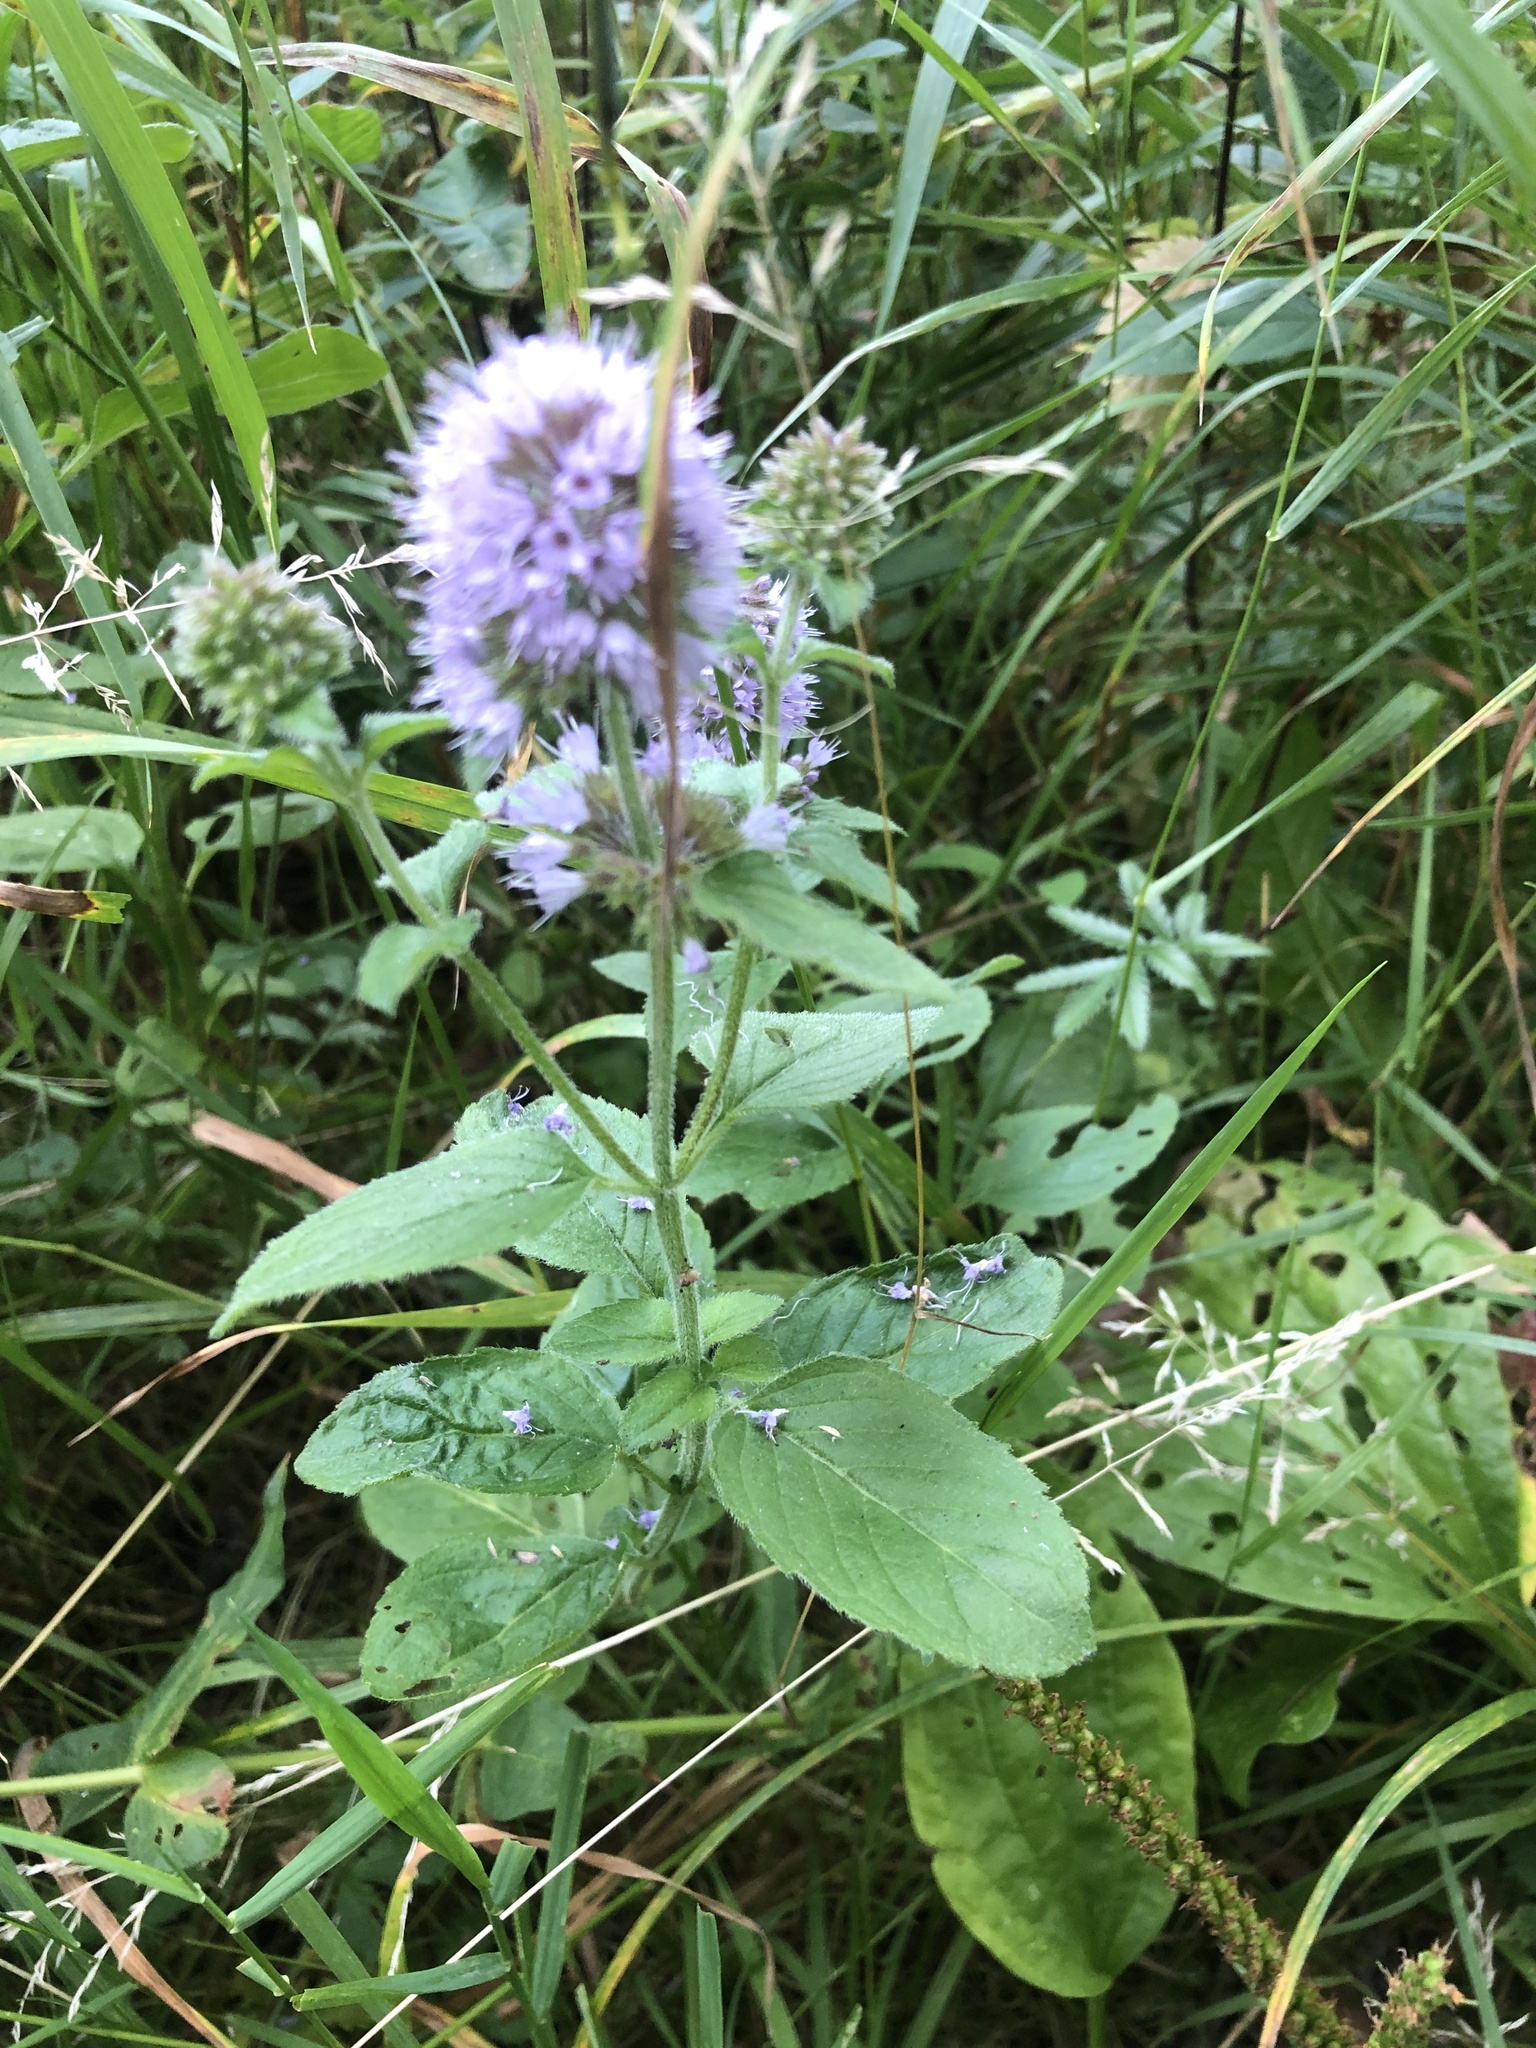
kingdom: Plantae
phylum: Tracheophyta
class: Magnoliopsida
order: Lamiales
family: Lamiaceae
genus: Mentha
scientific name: Mentha aquatica
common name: Water mint
